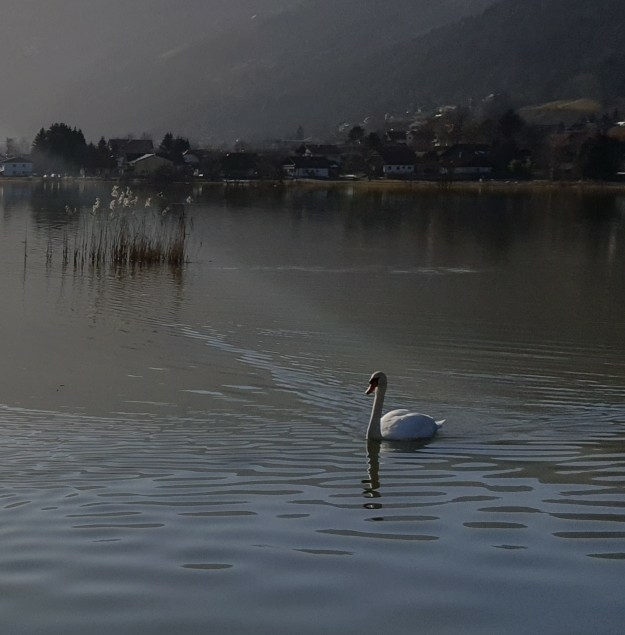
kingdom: Animalia
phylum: Chordata
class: Aves
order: Anseriformes
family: Anatidae
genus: Cygnus
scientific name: Cygnus olor
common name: Mute swan
